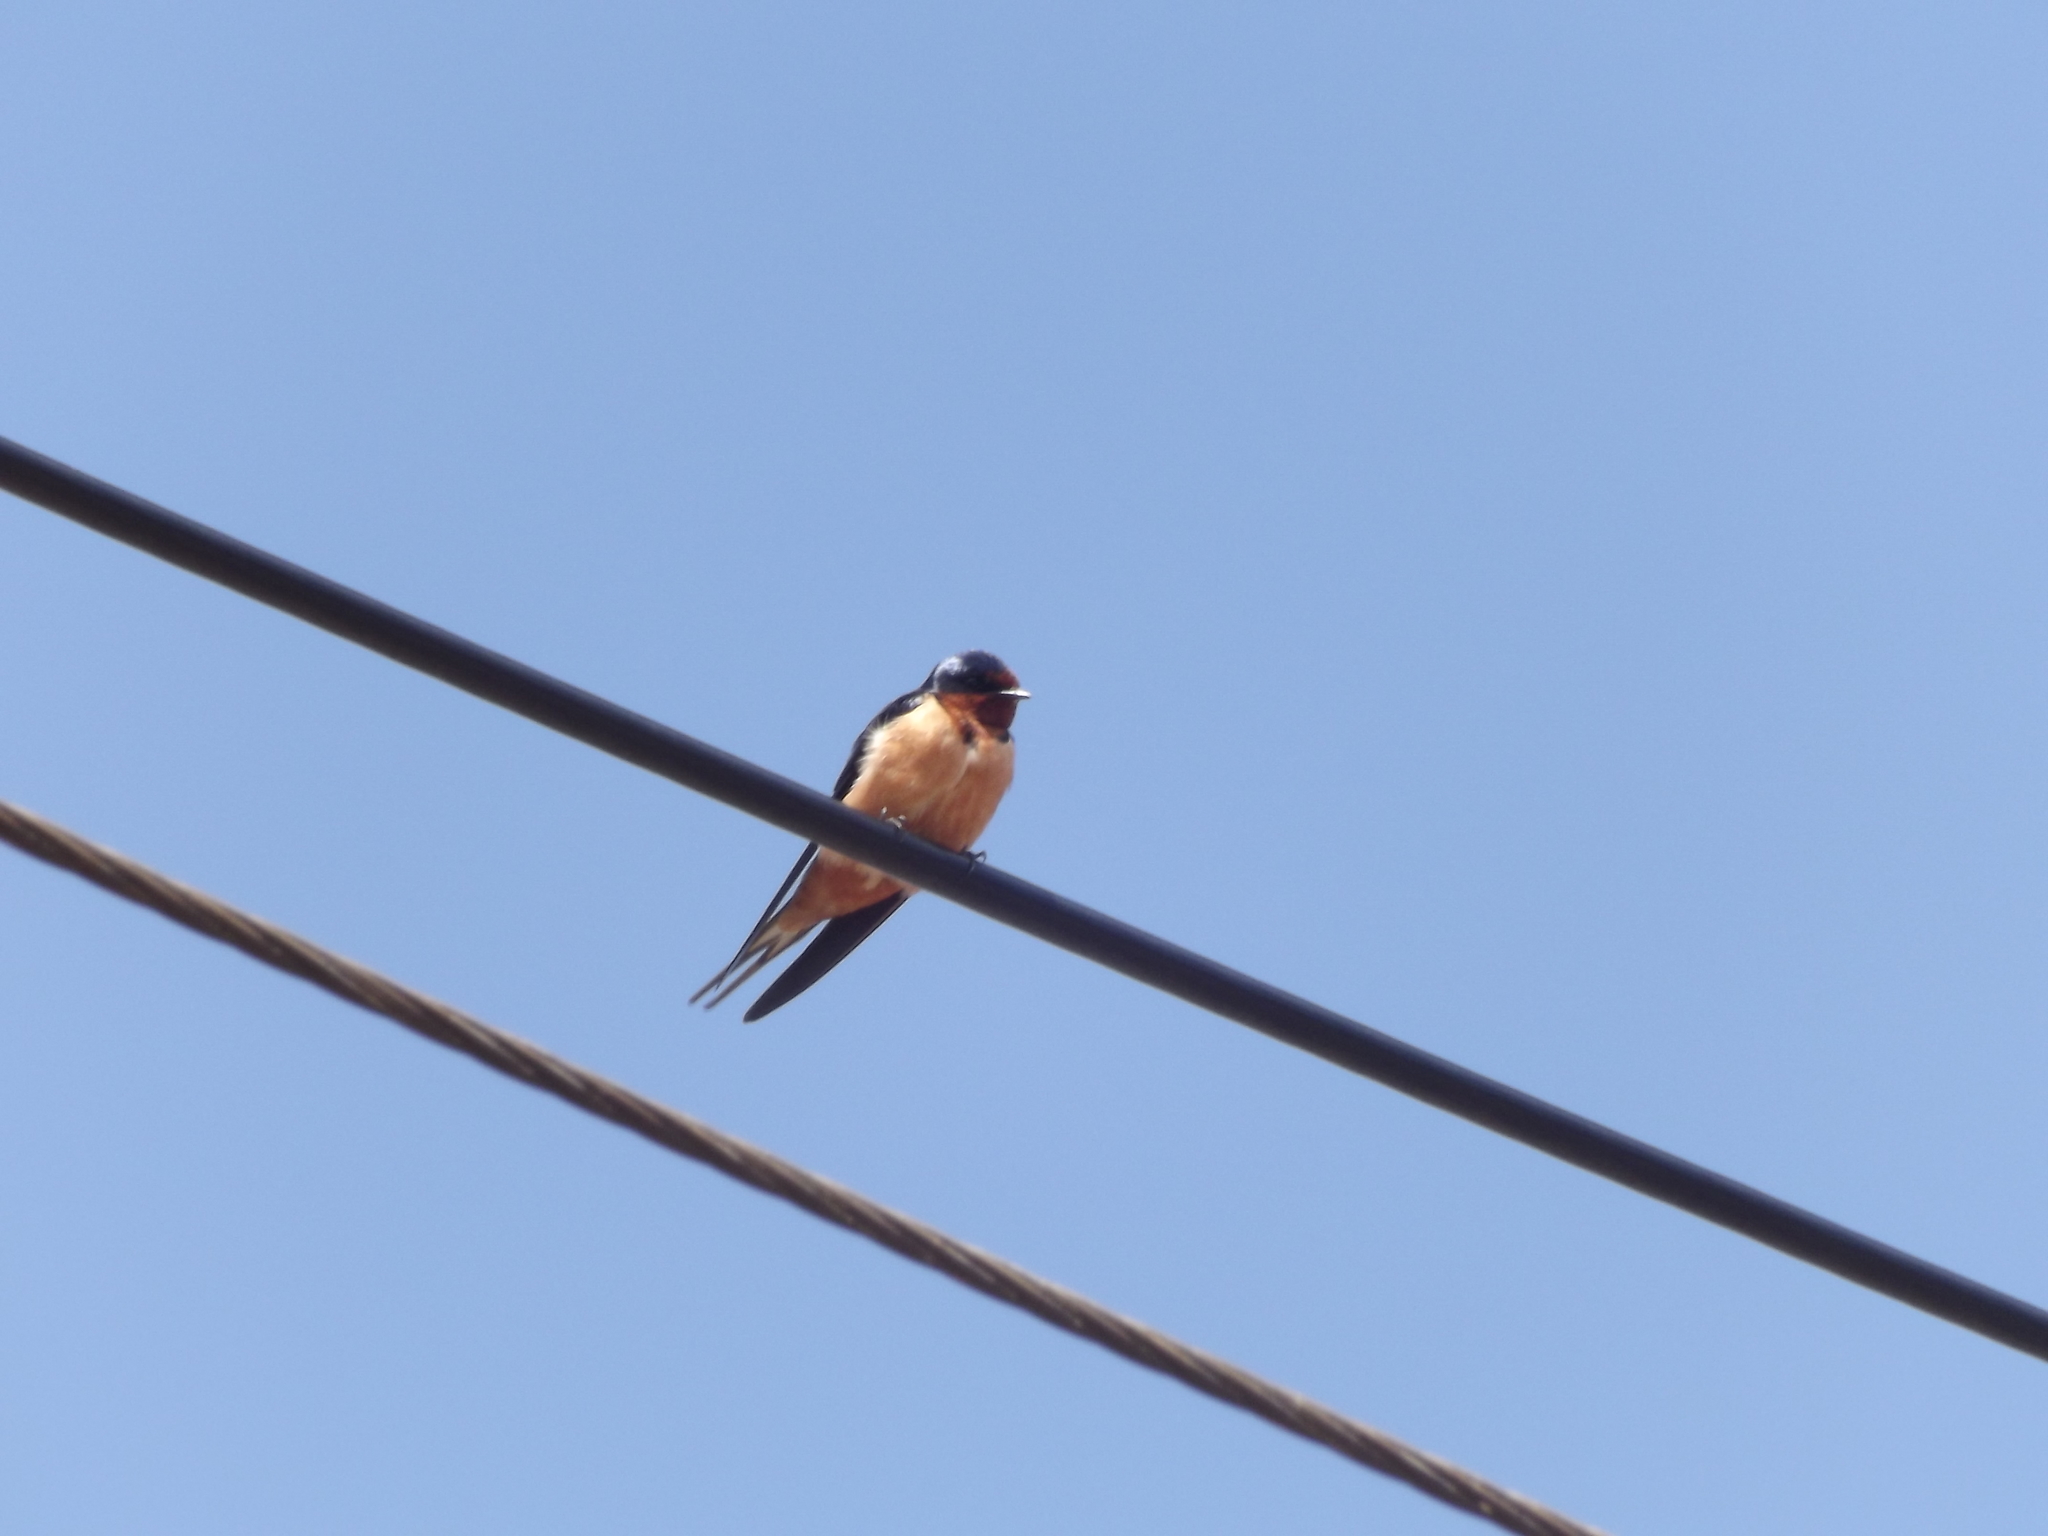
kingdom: Animalia
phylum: Chordata
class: Aves
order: Passeriformes
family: Hirundinidae
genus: Hirundo
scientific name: Hirundo rustica
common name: Barn swallow
